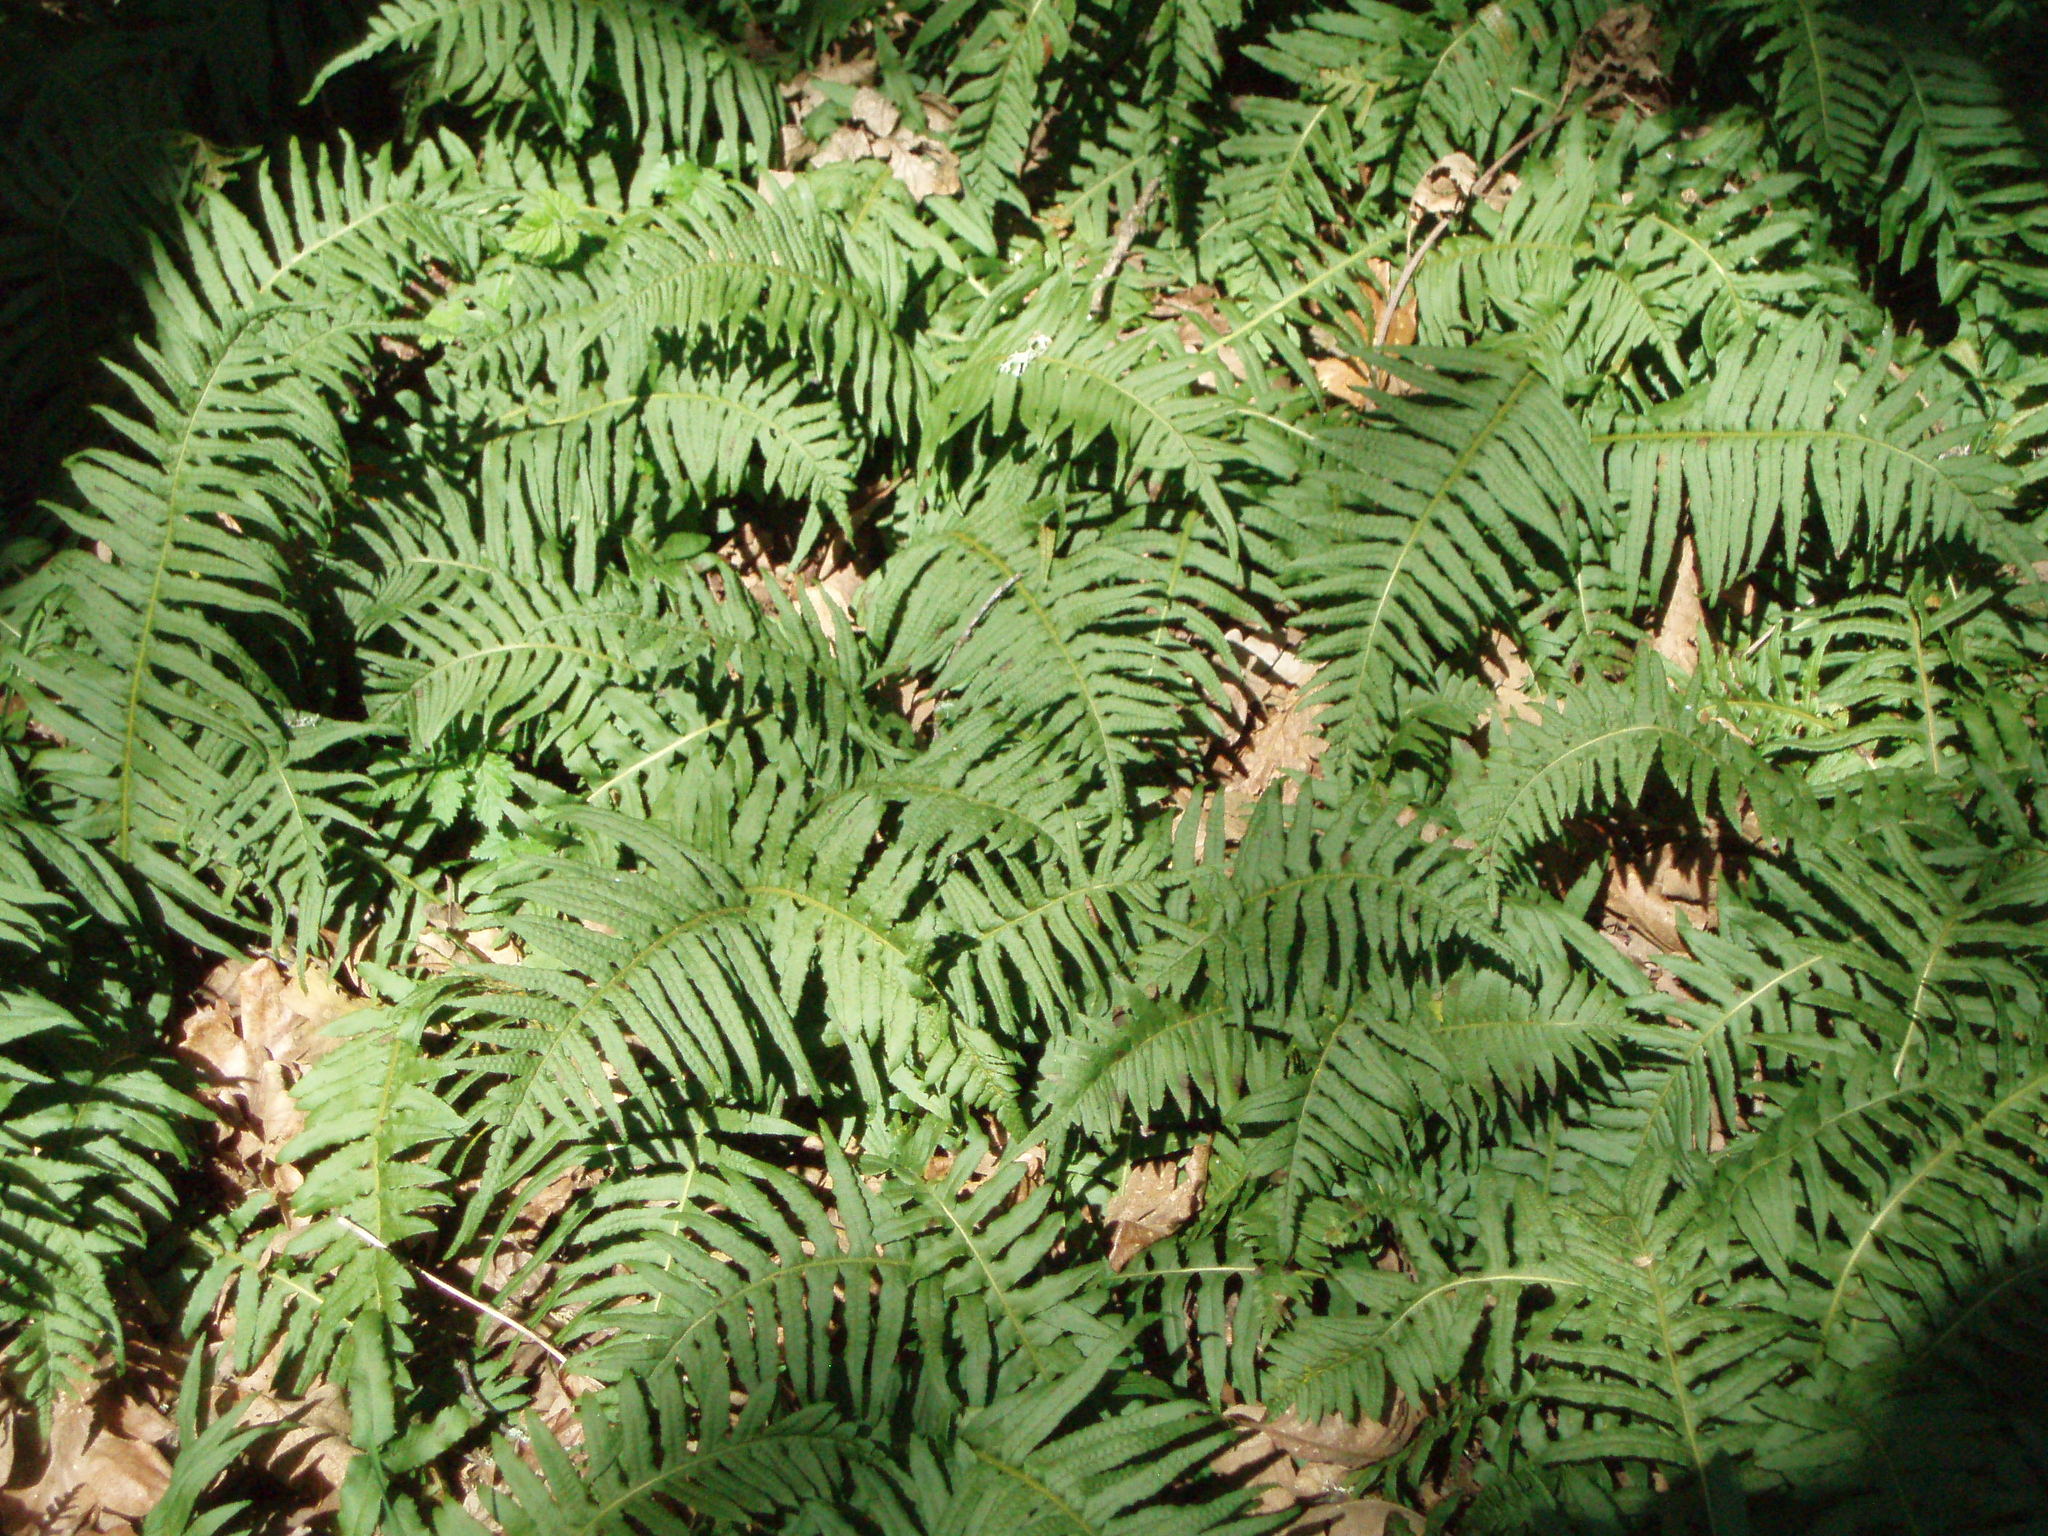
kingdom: Plantae
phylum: Tracheophyta
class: Polypodiopsida
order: Polypodiales
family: Polypodiaceae
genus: Polypodium
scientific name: Polypodium glycyrrhiza
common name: Licorice fern
